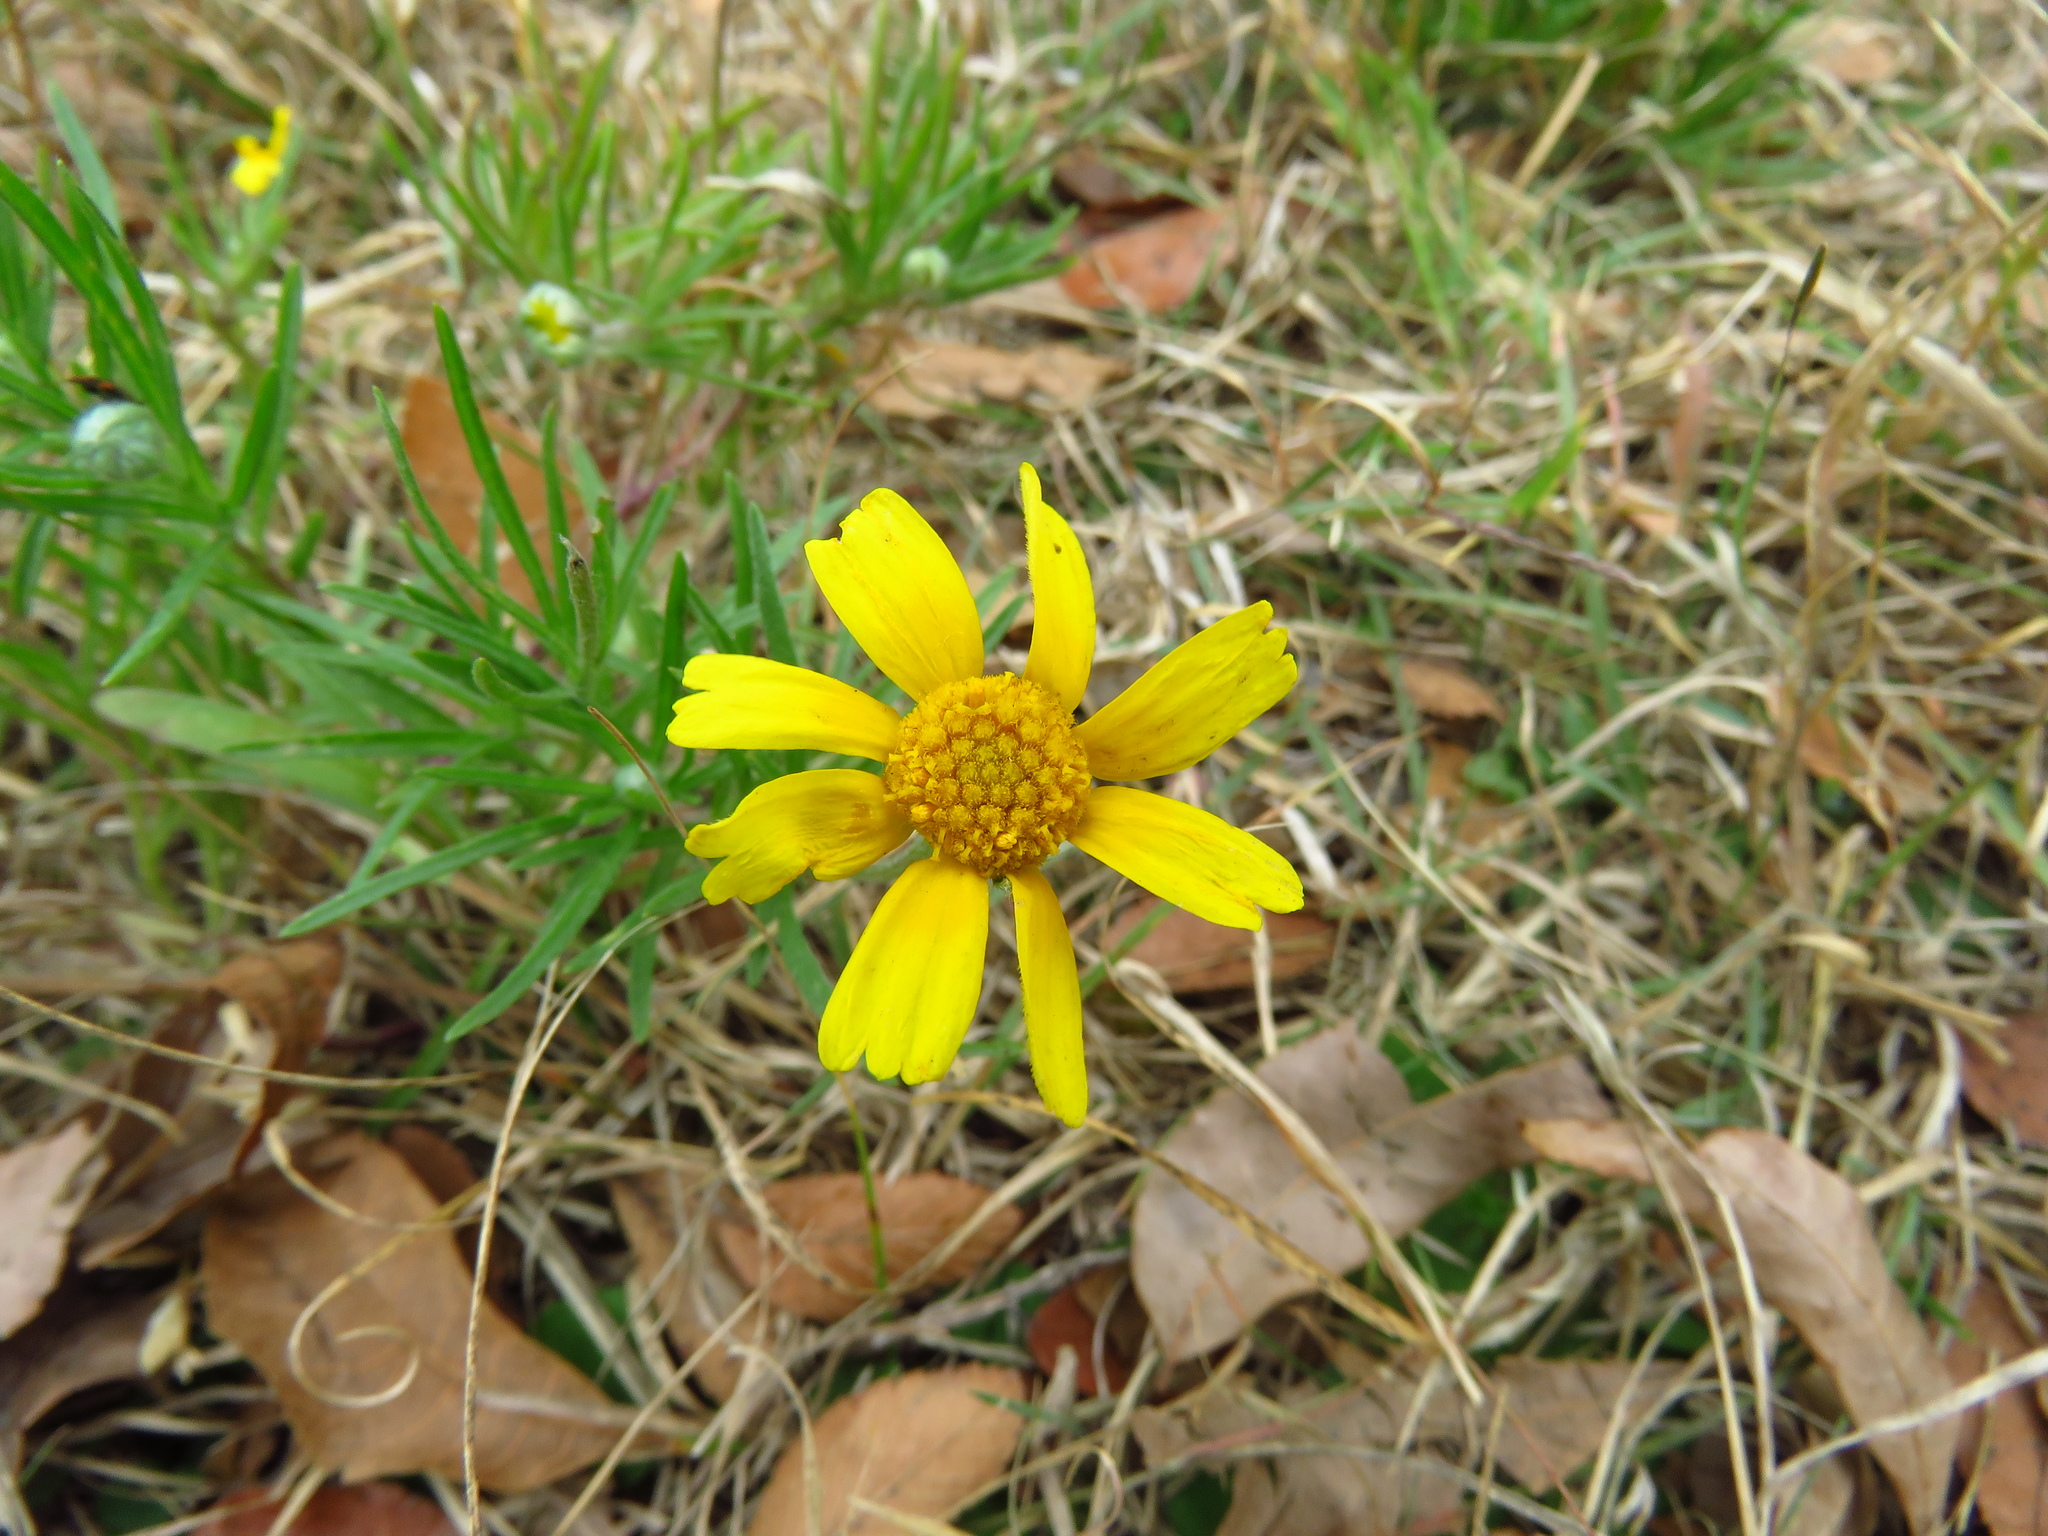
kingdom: Plantae
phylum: Tracheophyta
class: Magnoliopsida
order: Asterales
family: Asteraceae
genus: Helenium
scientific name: Helenium amarum
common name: Bitter sneezeweed
